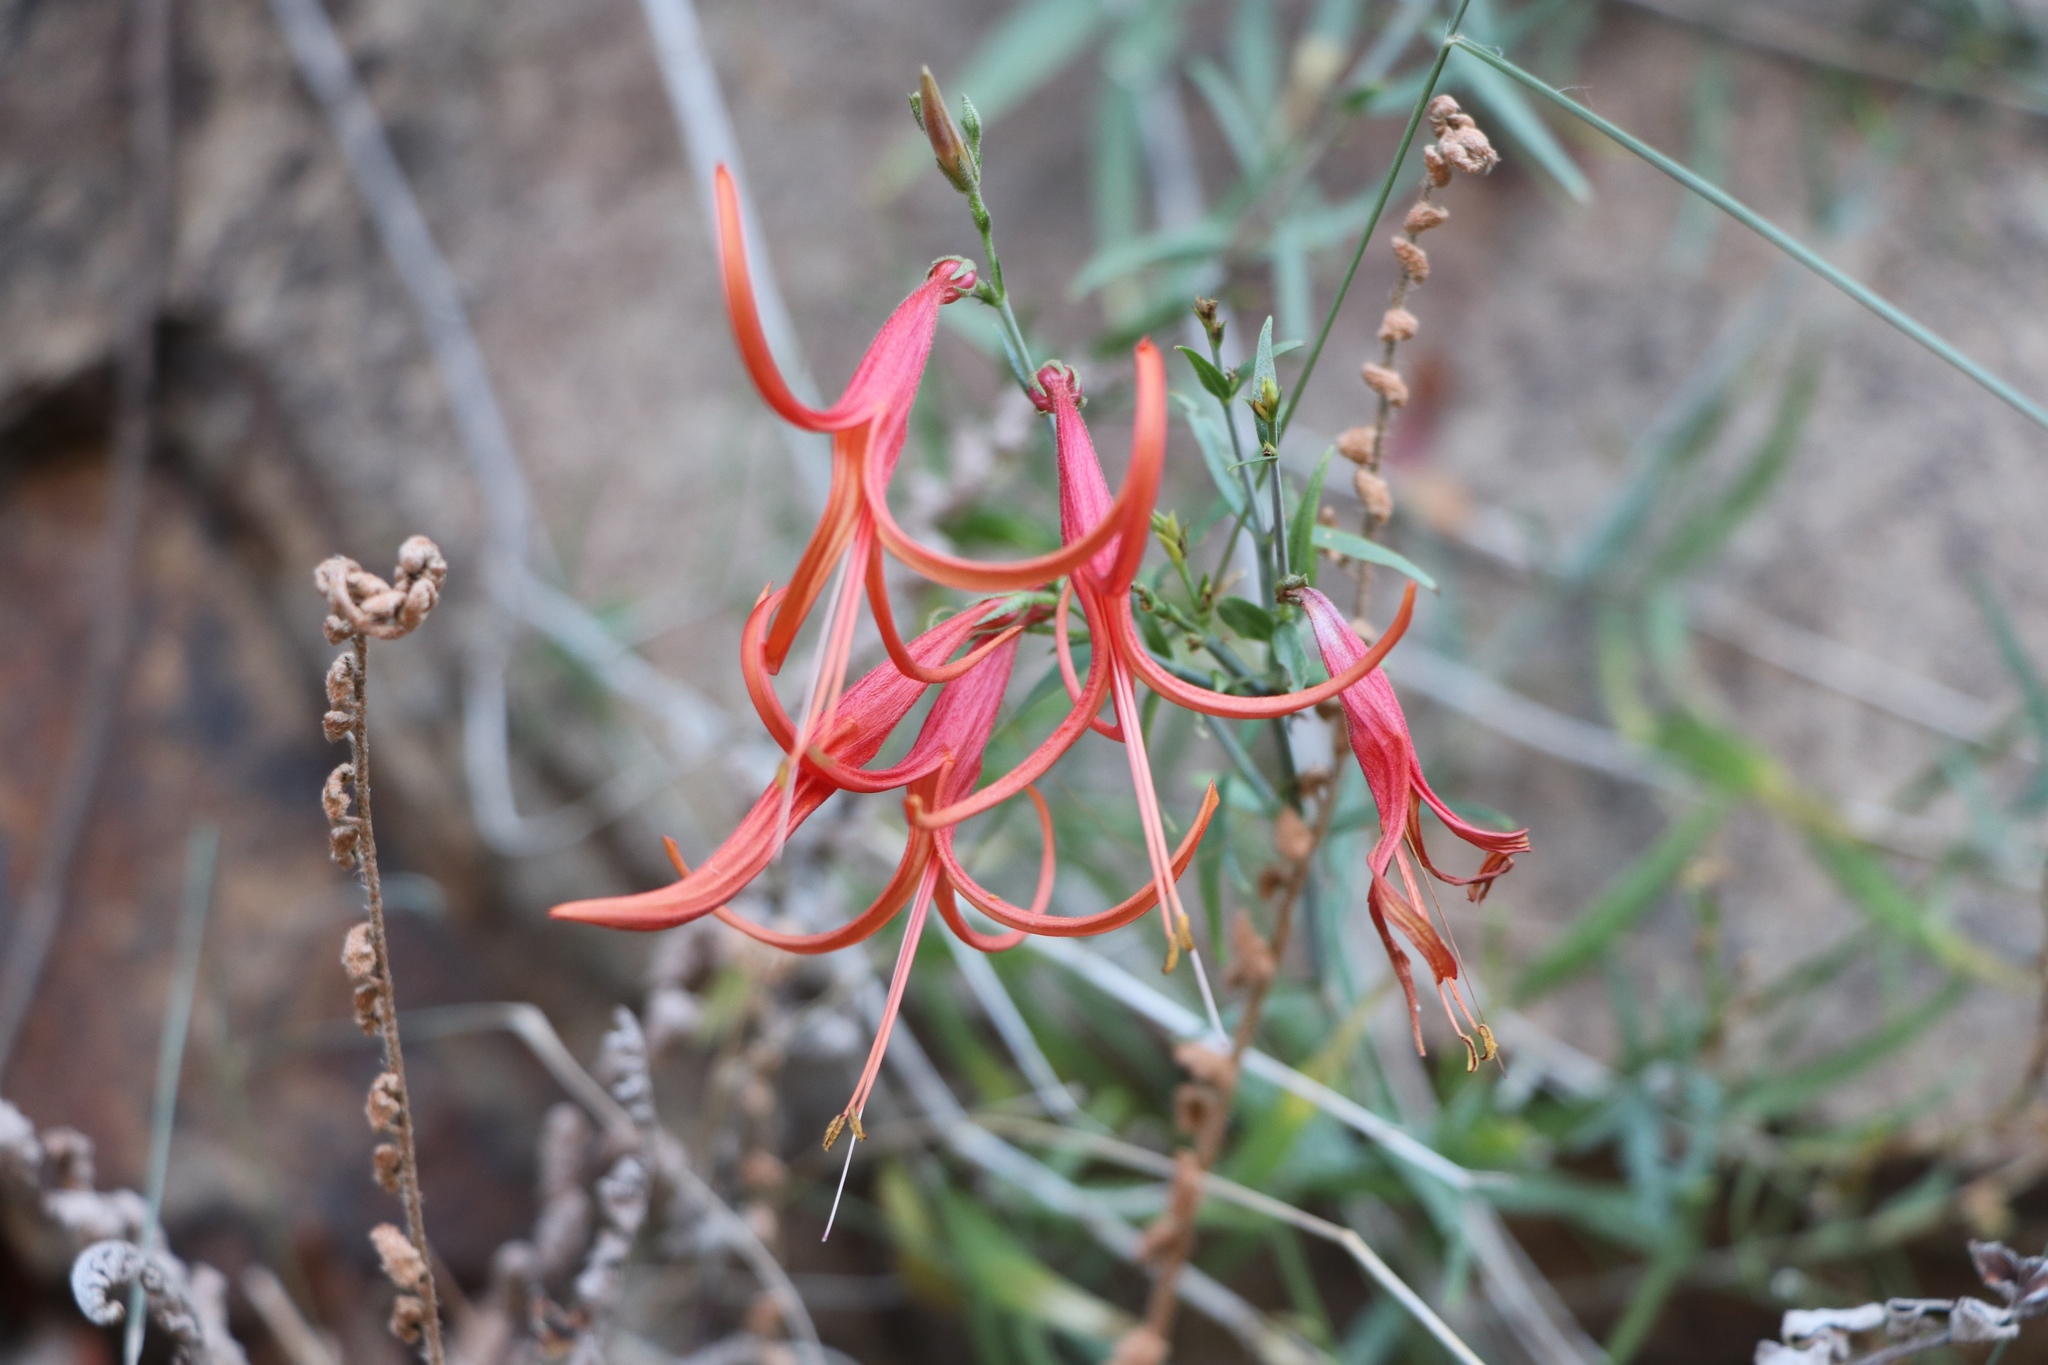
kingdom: Plantae
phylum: Tracheophyta
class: Magnoliopsida
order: Lamiales
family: Acanthaceae
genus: Anisacanthus
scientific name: Anisacanthus linearis
